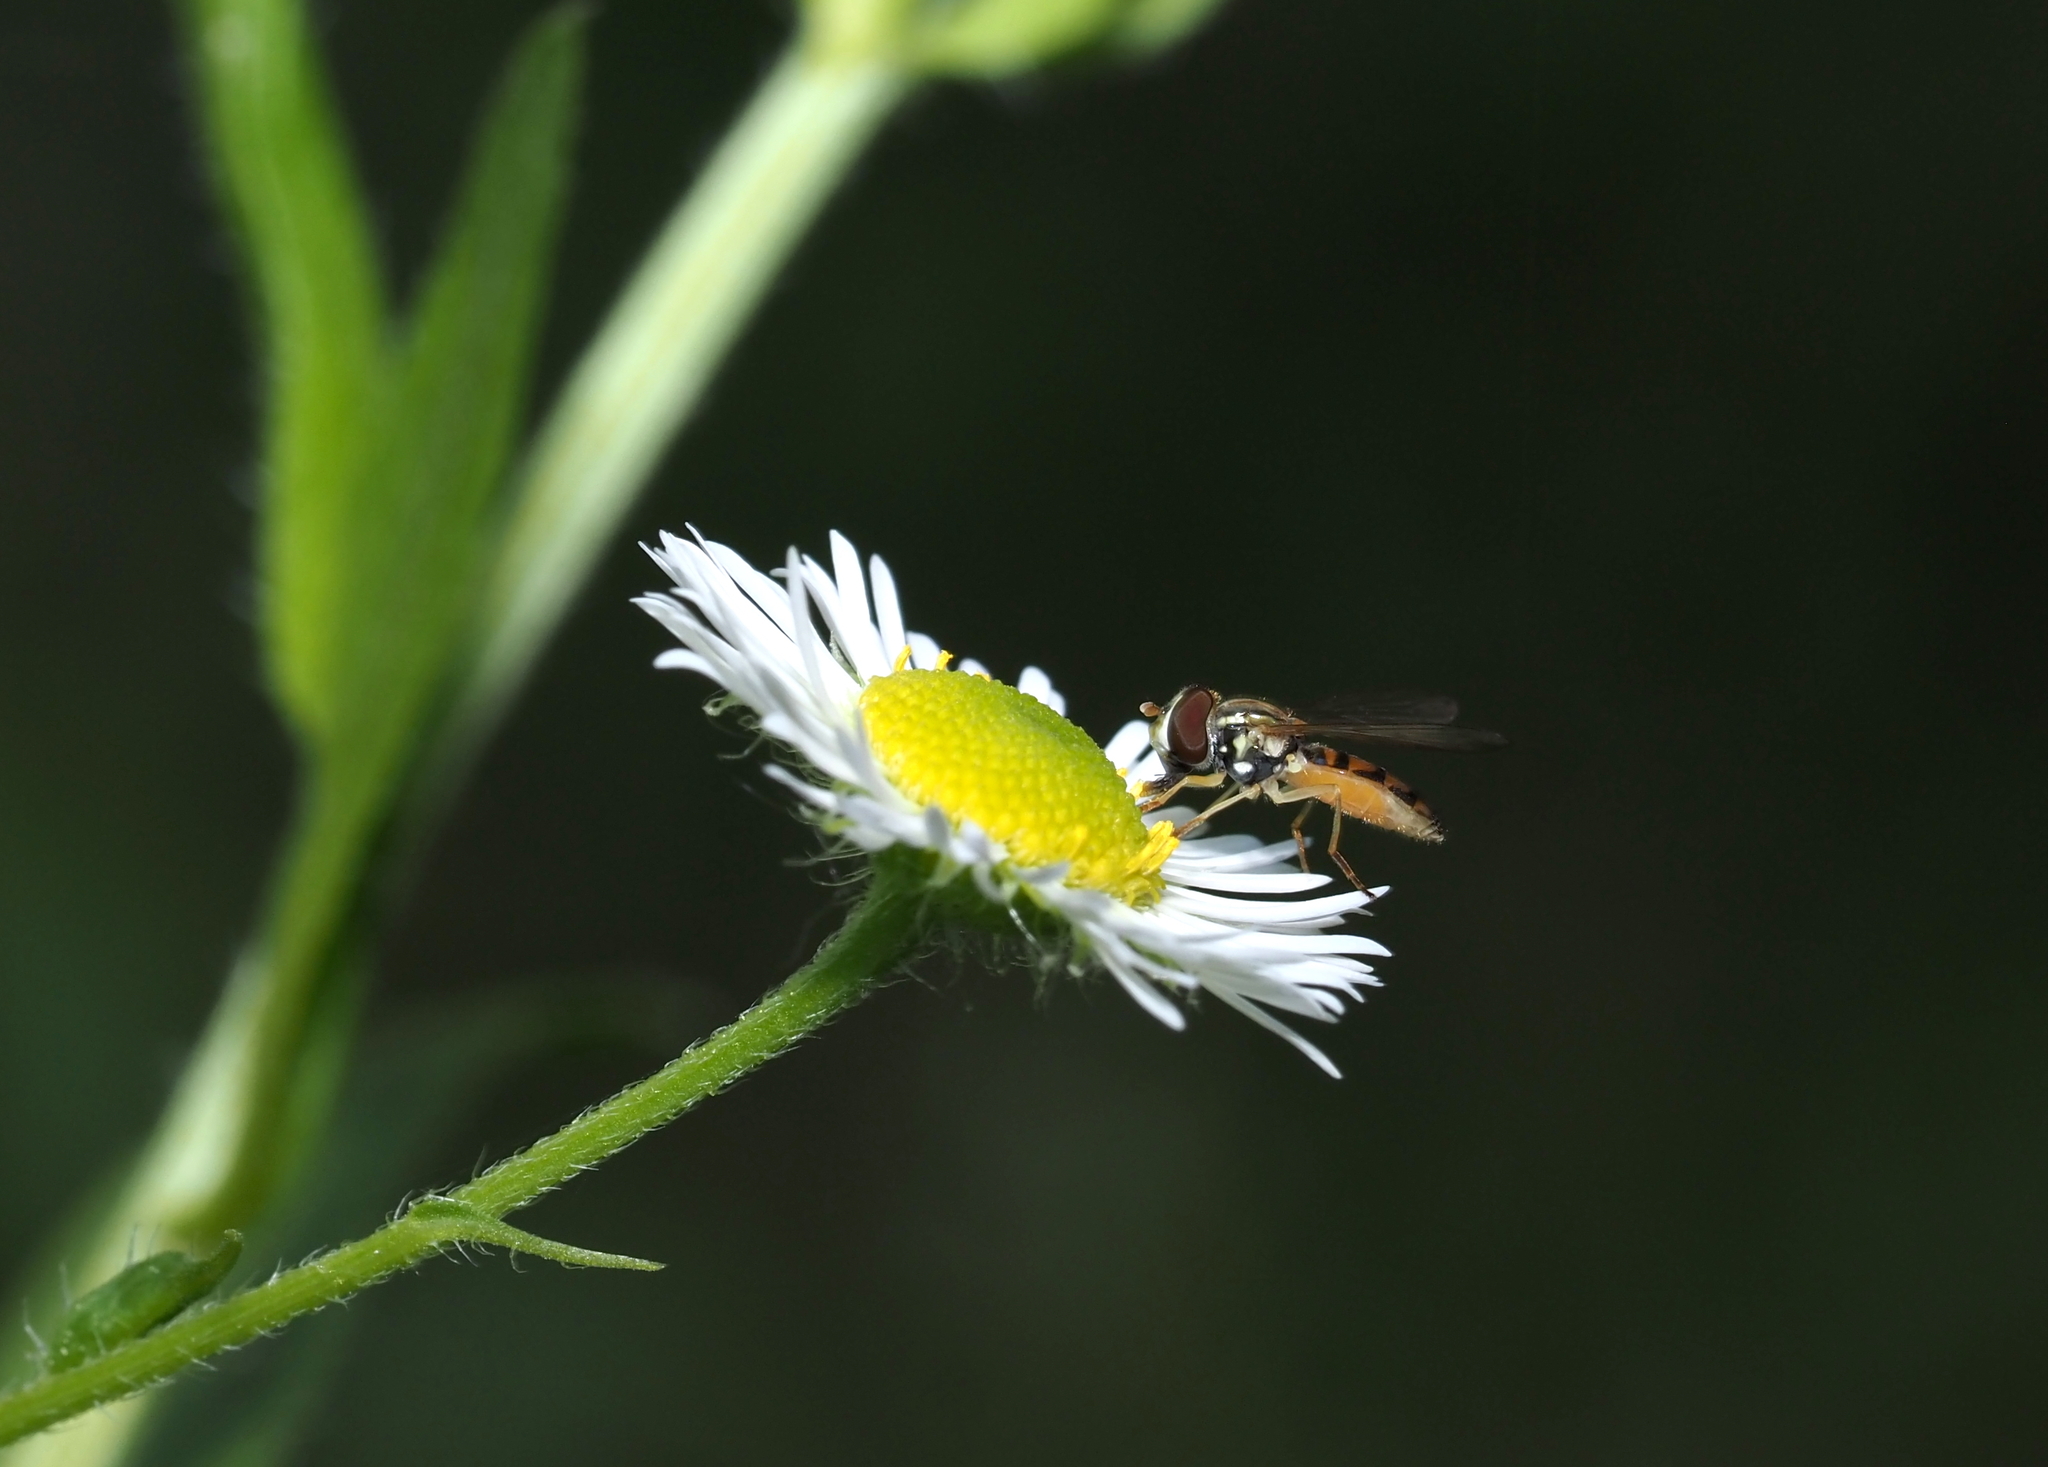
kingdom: Animalia
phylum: Arthropoda
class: Insecta
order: Diptera
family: Syrphidae
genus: Toxomerus
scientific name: Toxomerus marginatus
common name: Syrphid fly
